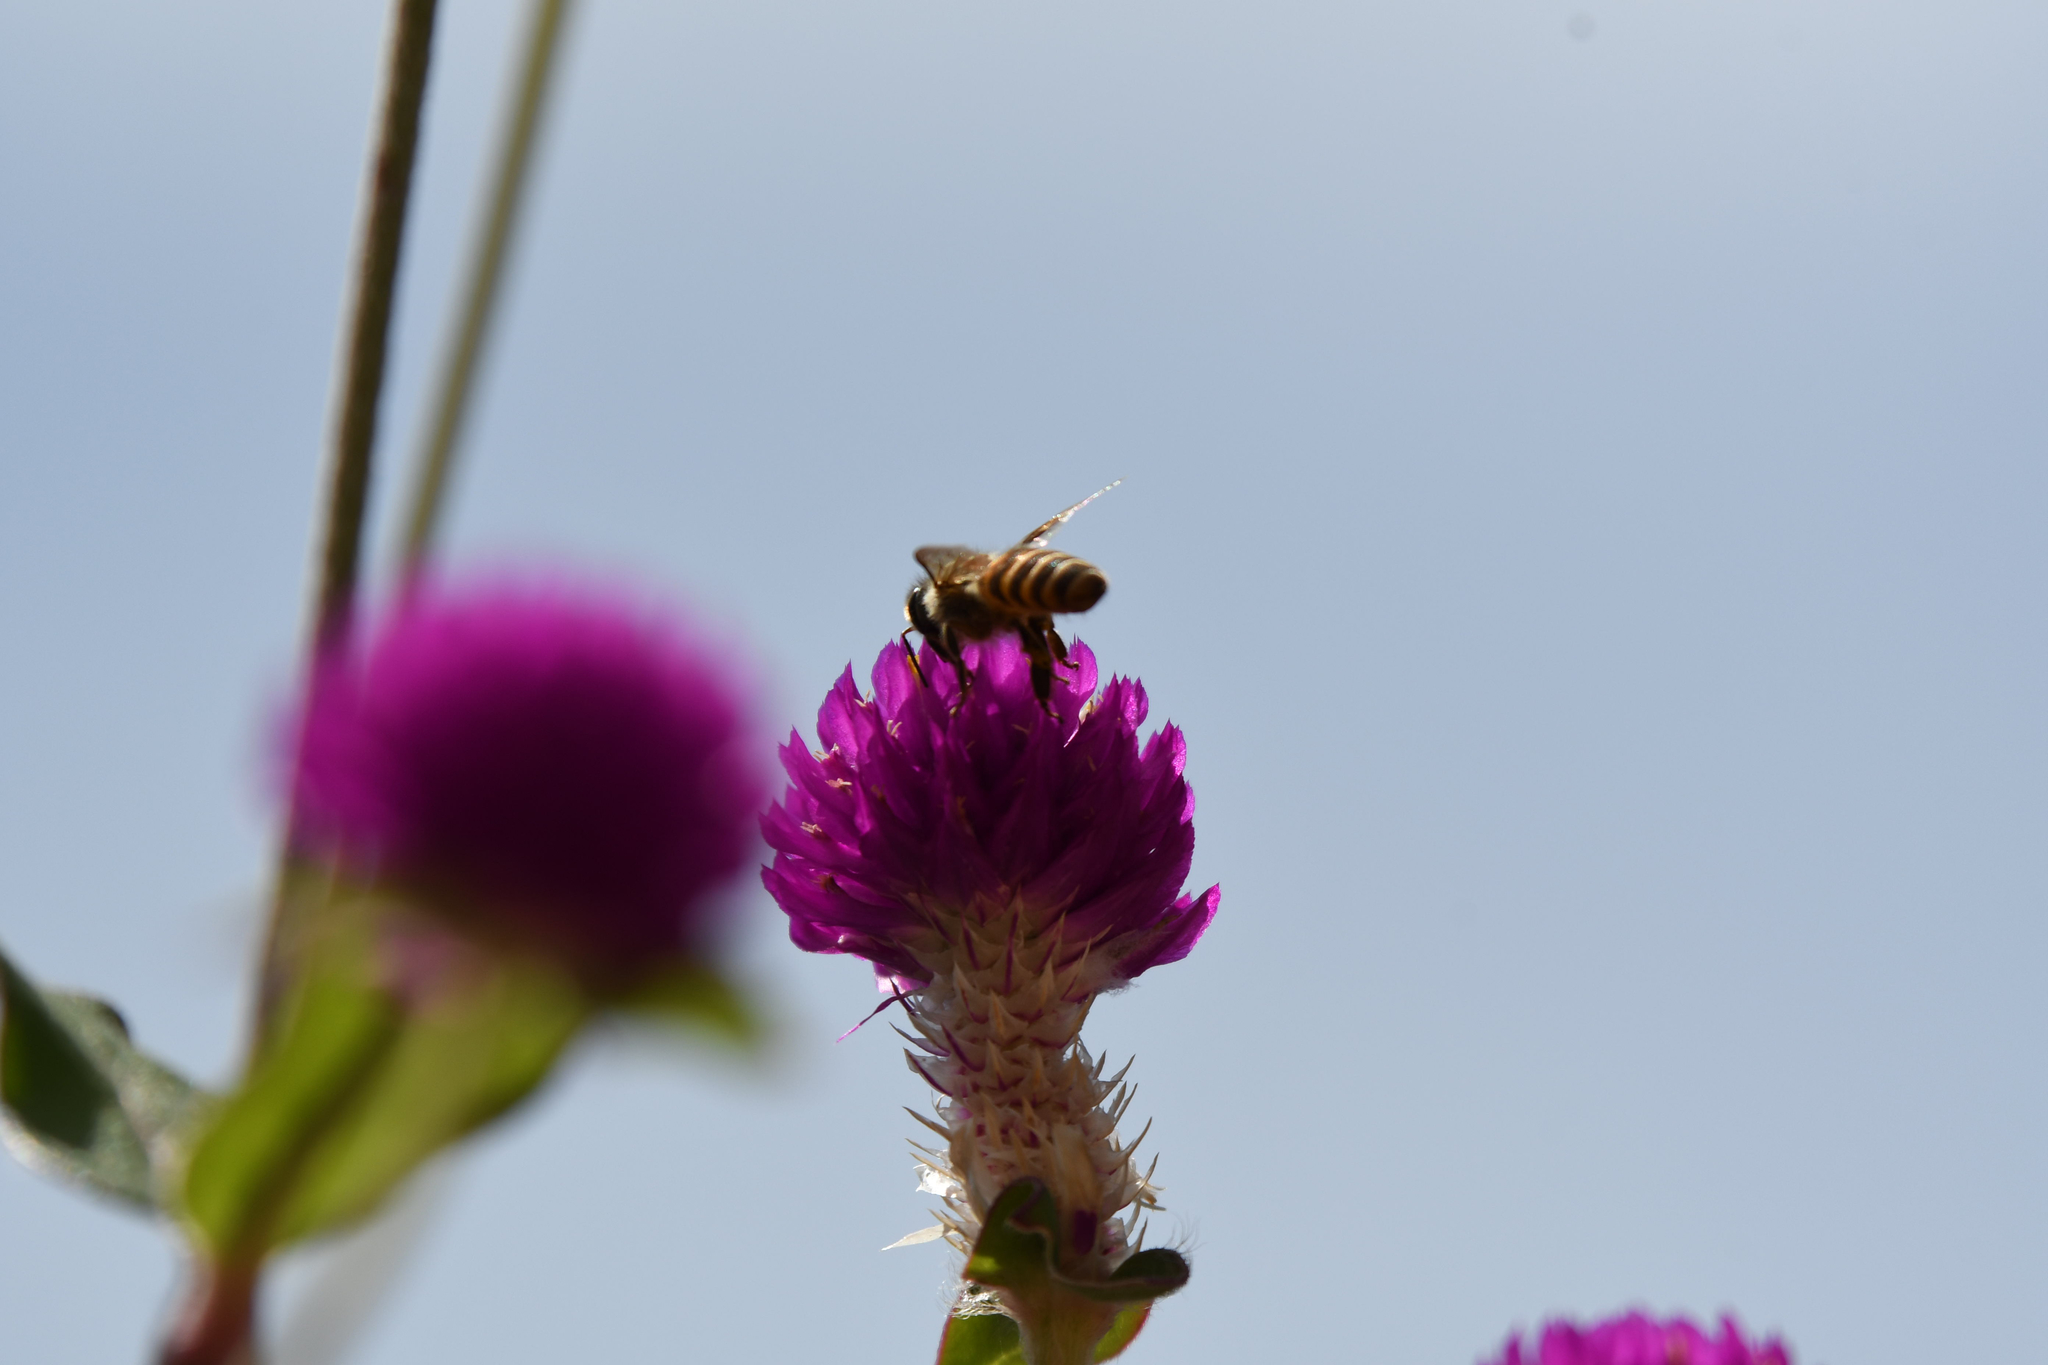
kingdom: Animalia
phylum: Arthropoda
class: Insecta
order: Hymenoptera
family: Apidae
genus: Apis
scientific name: Apis cerana
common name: Honey bee
